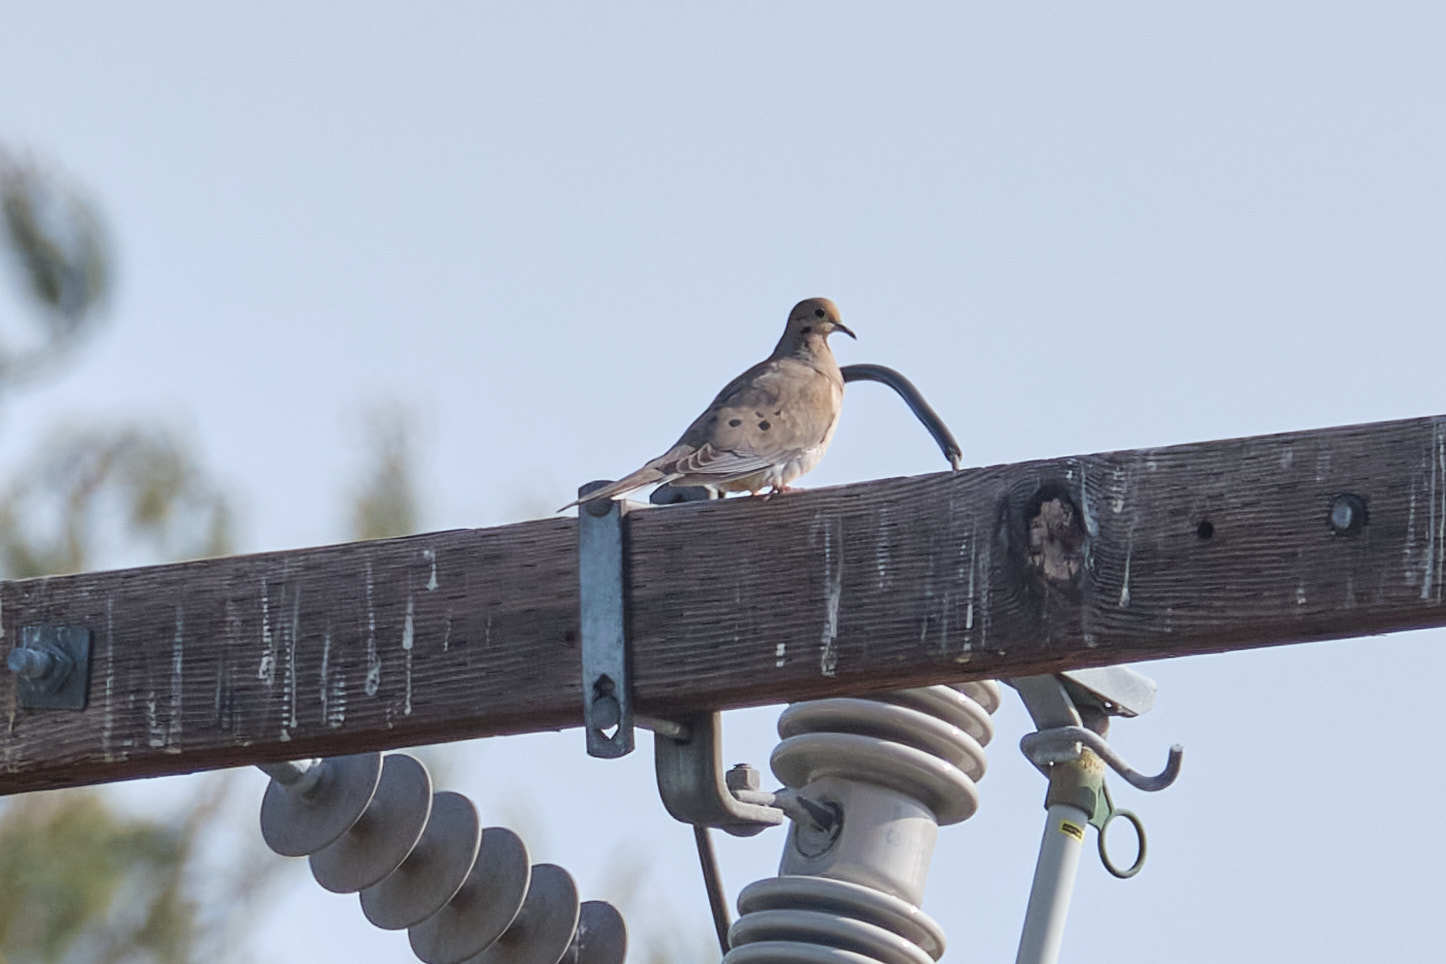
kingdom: Animalia
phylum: Chordata
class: Aves
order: Columbiformes
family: Columbidae
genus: Zenaida
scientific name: Zenaida macroura
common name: Mourning dove
